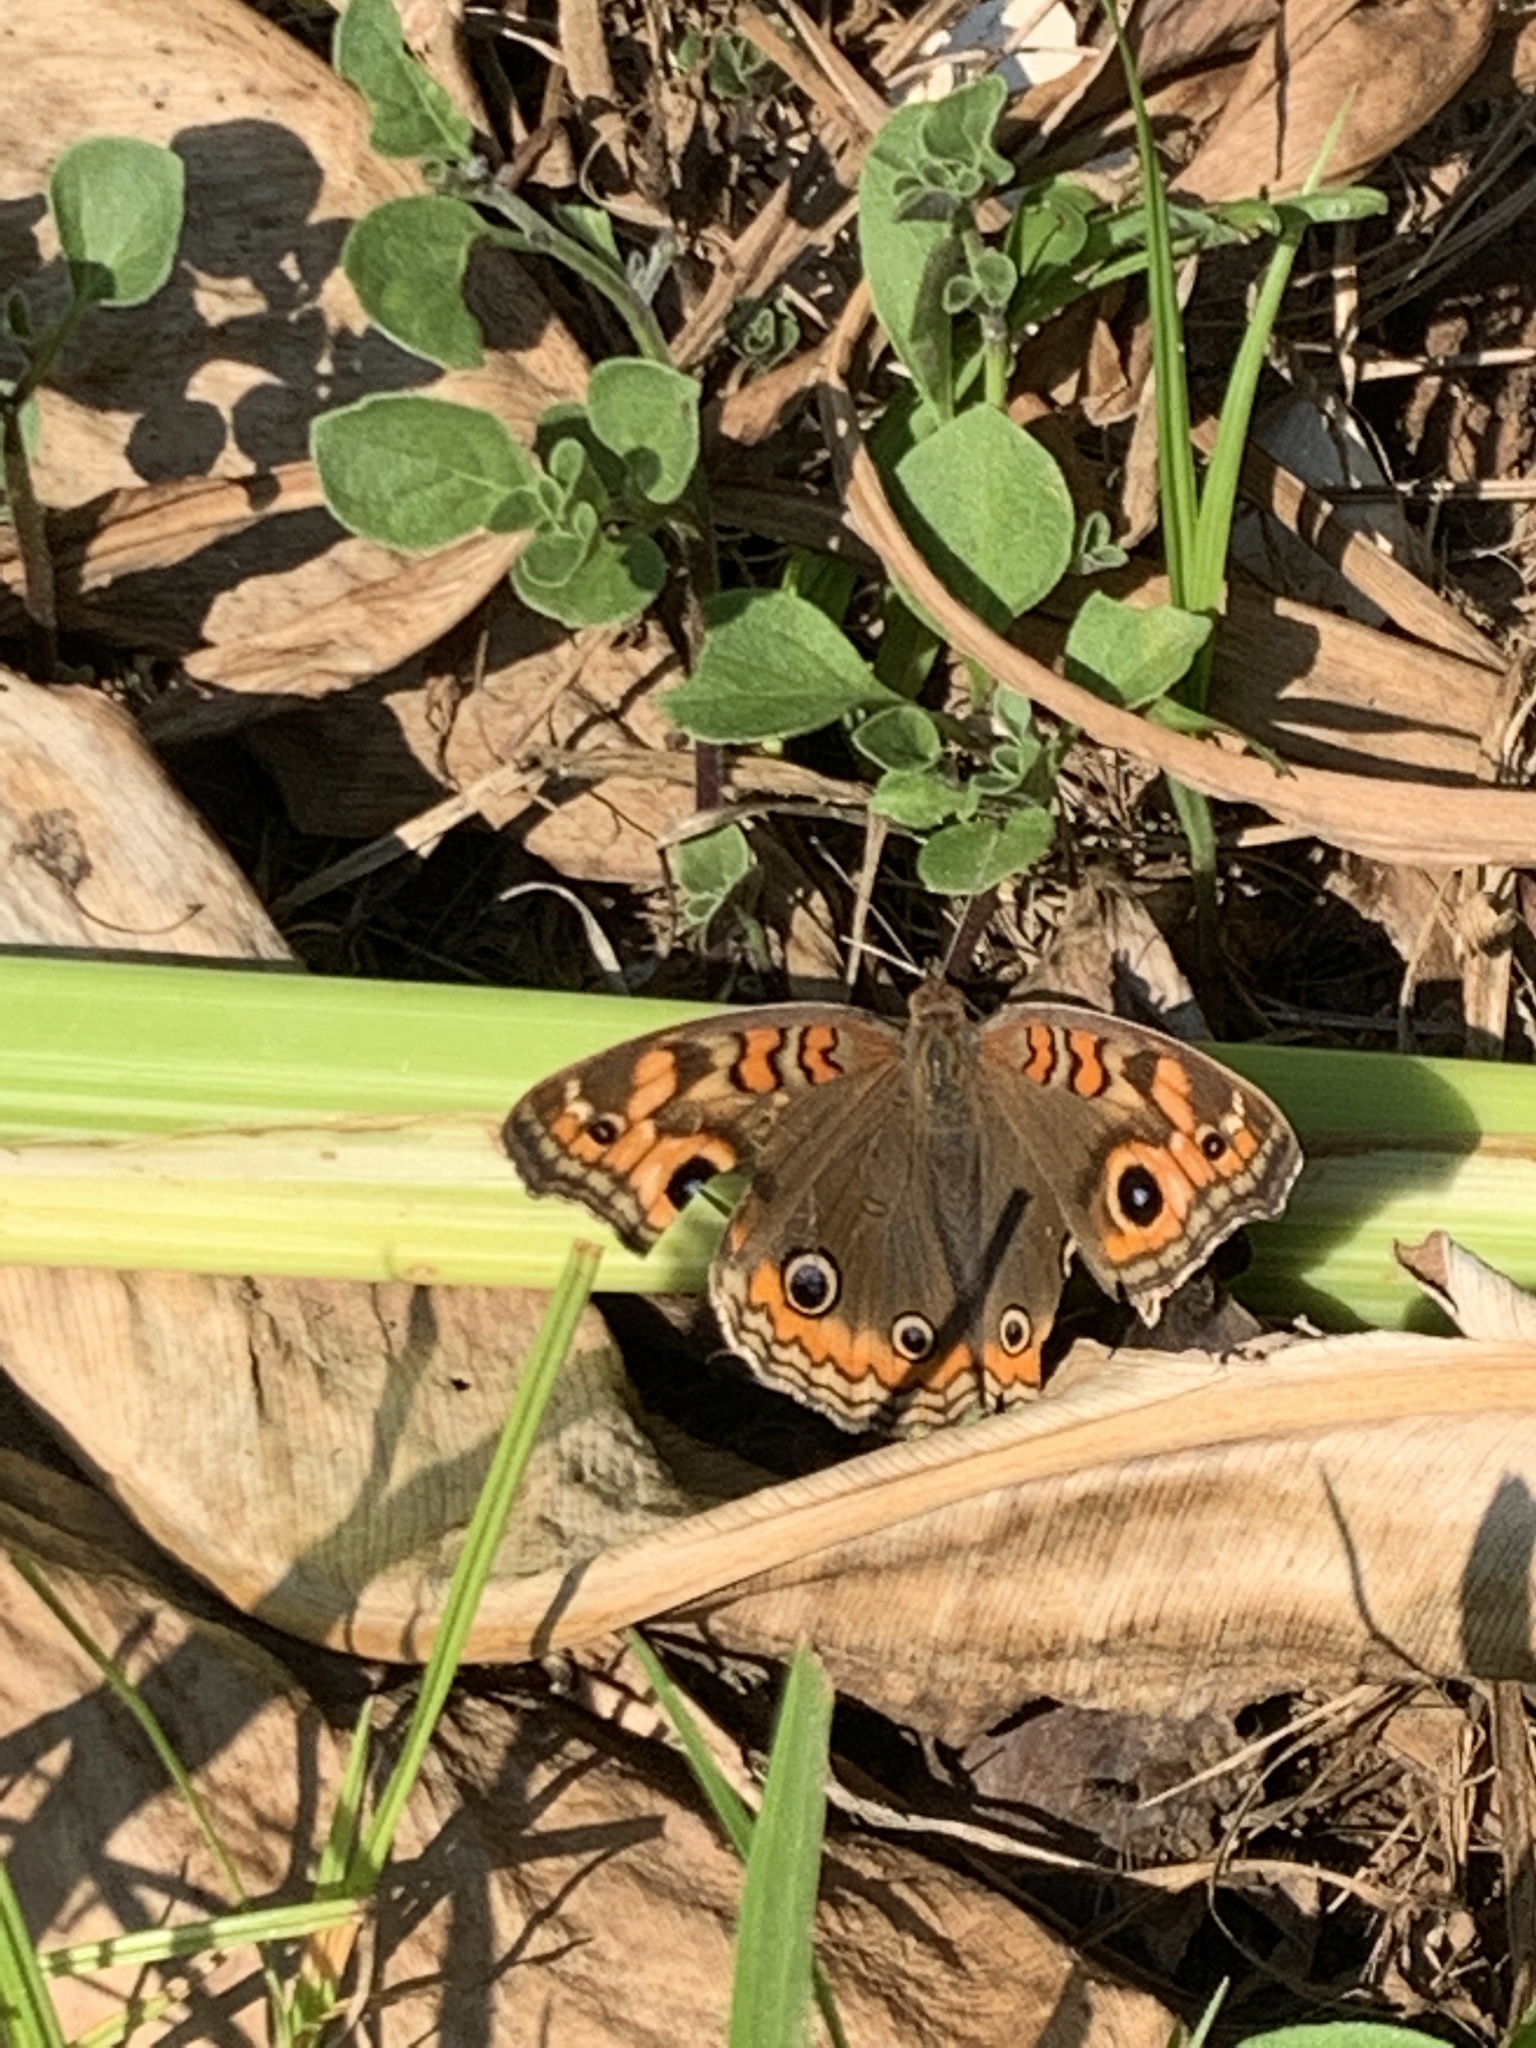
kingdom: Animalia
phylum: Arthropoda
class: Insecta
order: Lepidoptera
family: Nymphalidae
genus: Junonia
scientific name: Junonia lavinia
